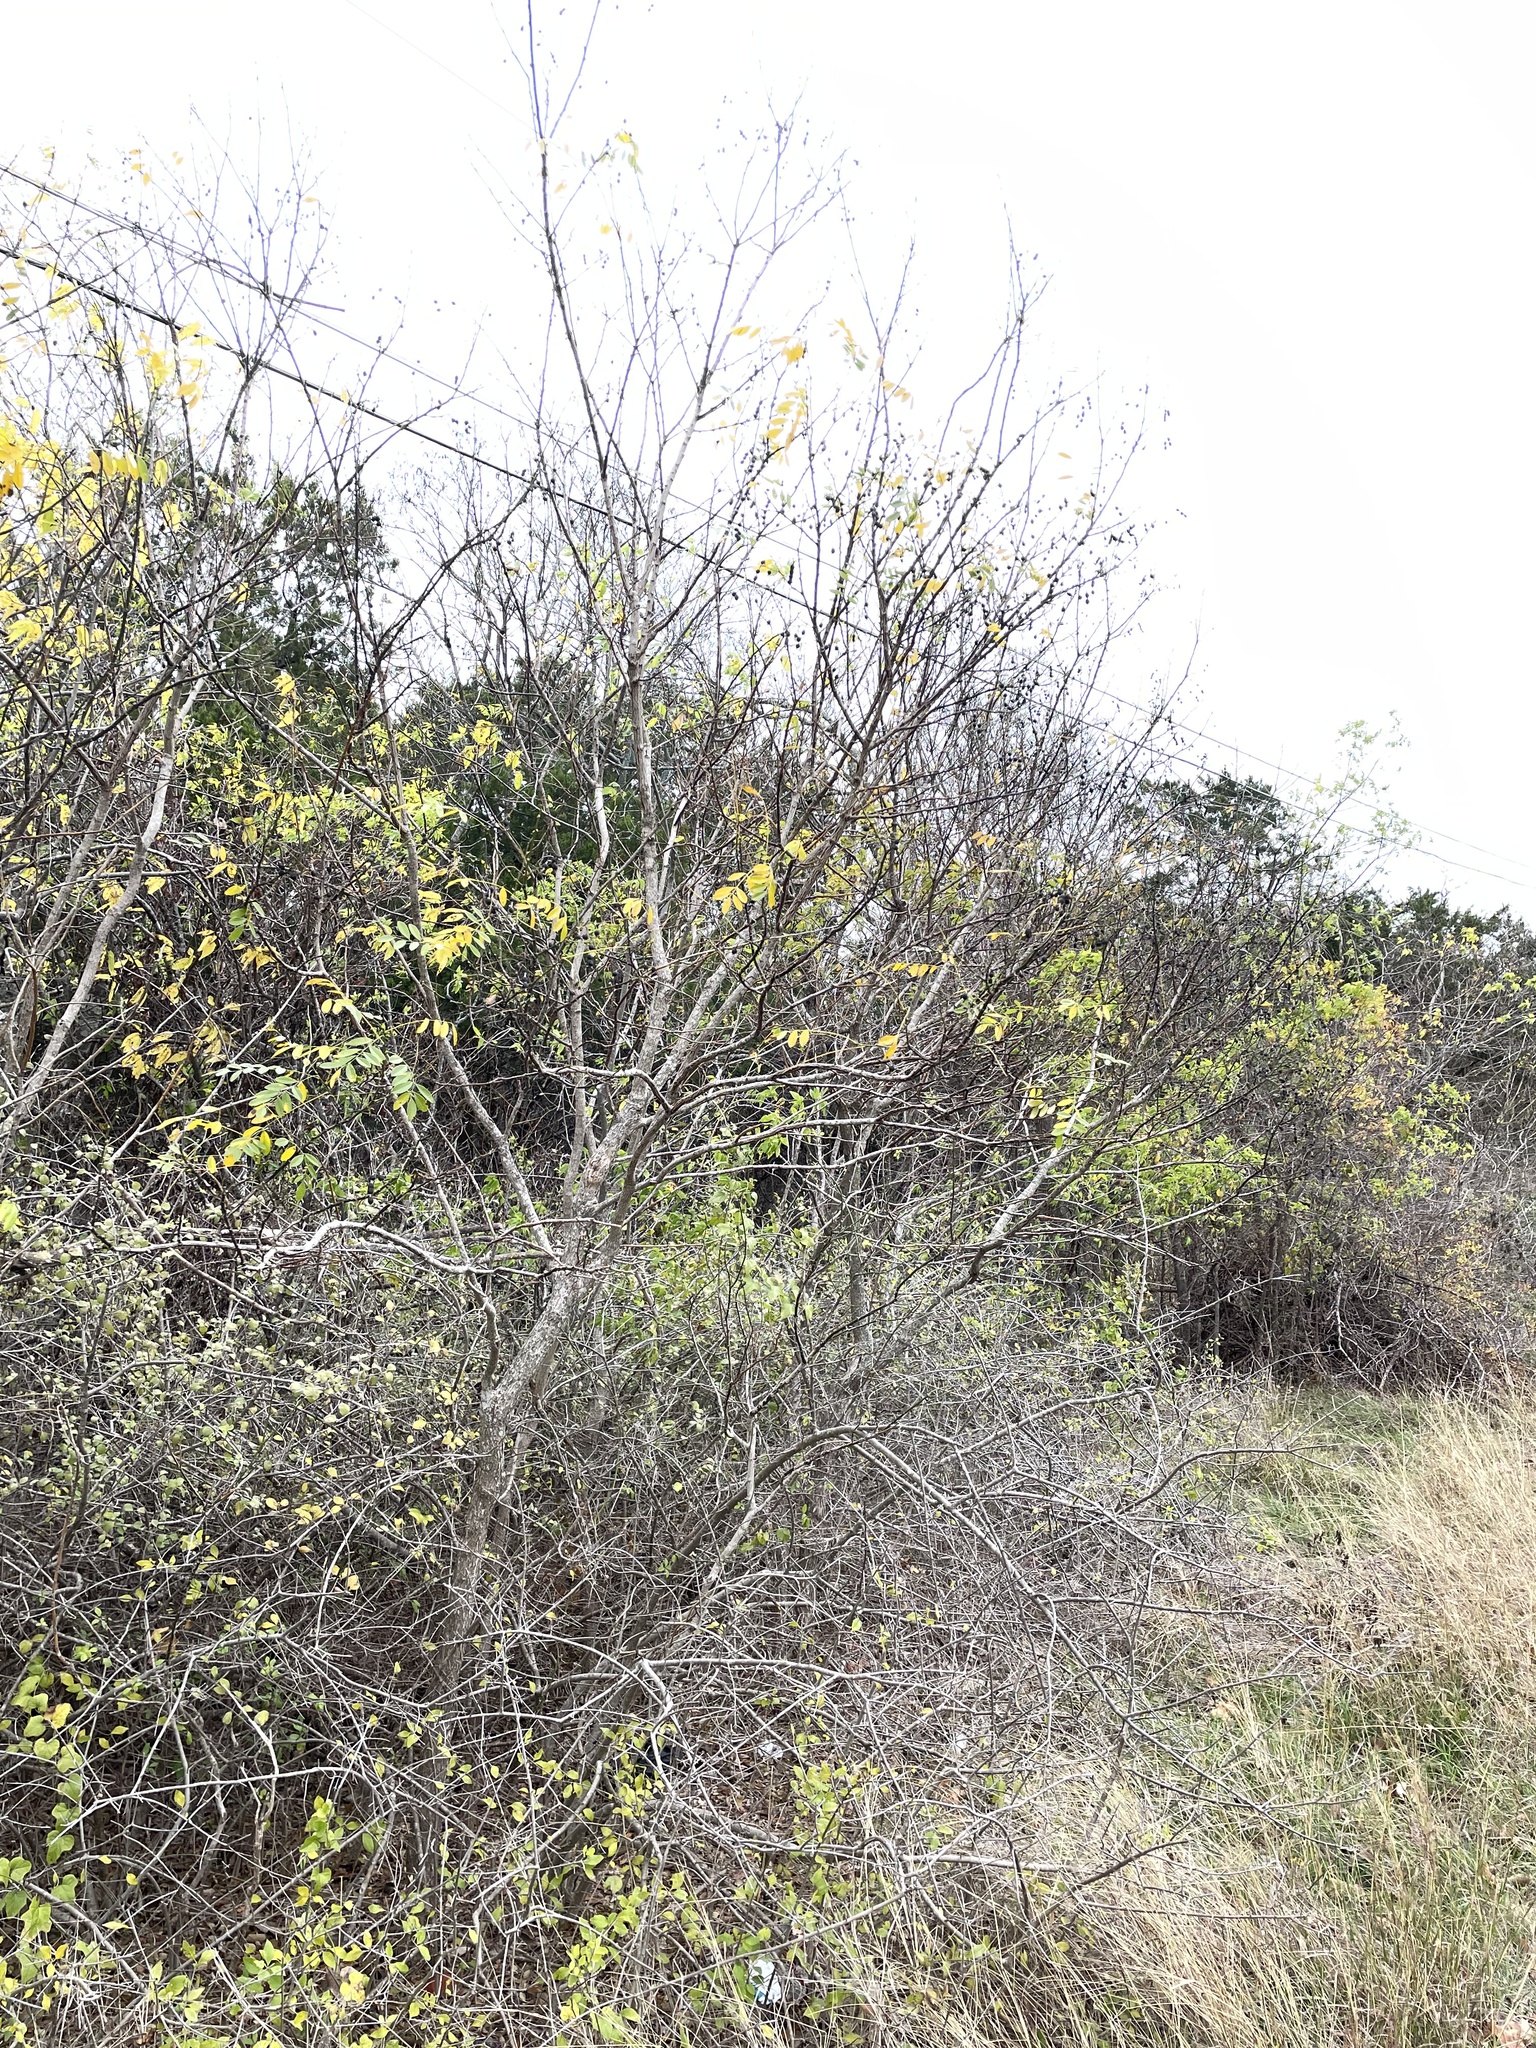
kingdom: Plantae
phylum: Tracheophyta
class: Magnoliopsida
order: Fabales
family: Fabaceae
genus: Styphnolobium
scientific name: Styphnolobium affine
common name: Texas sophora
